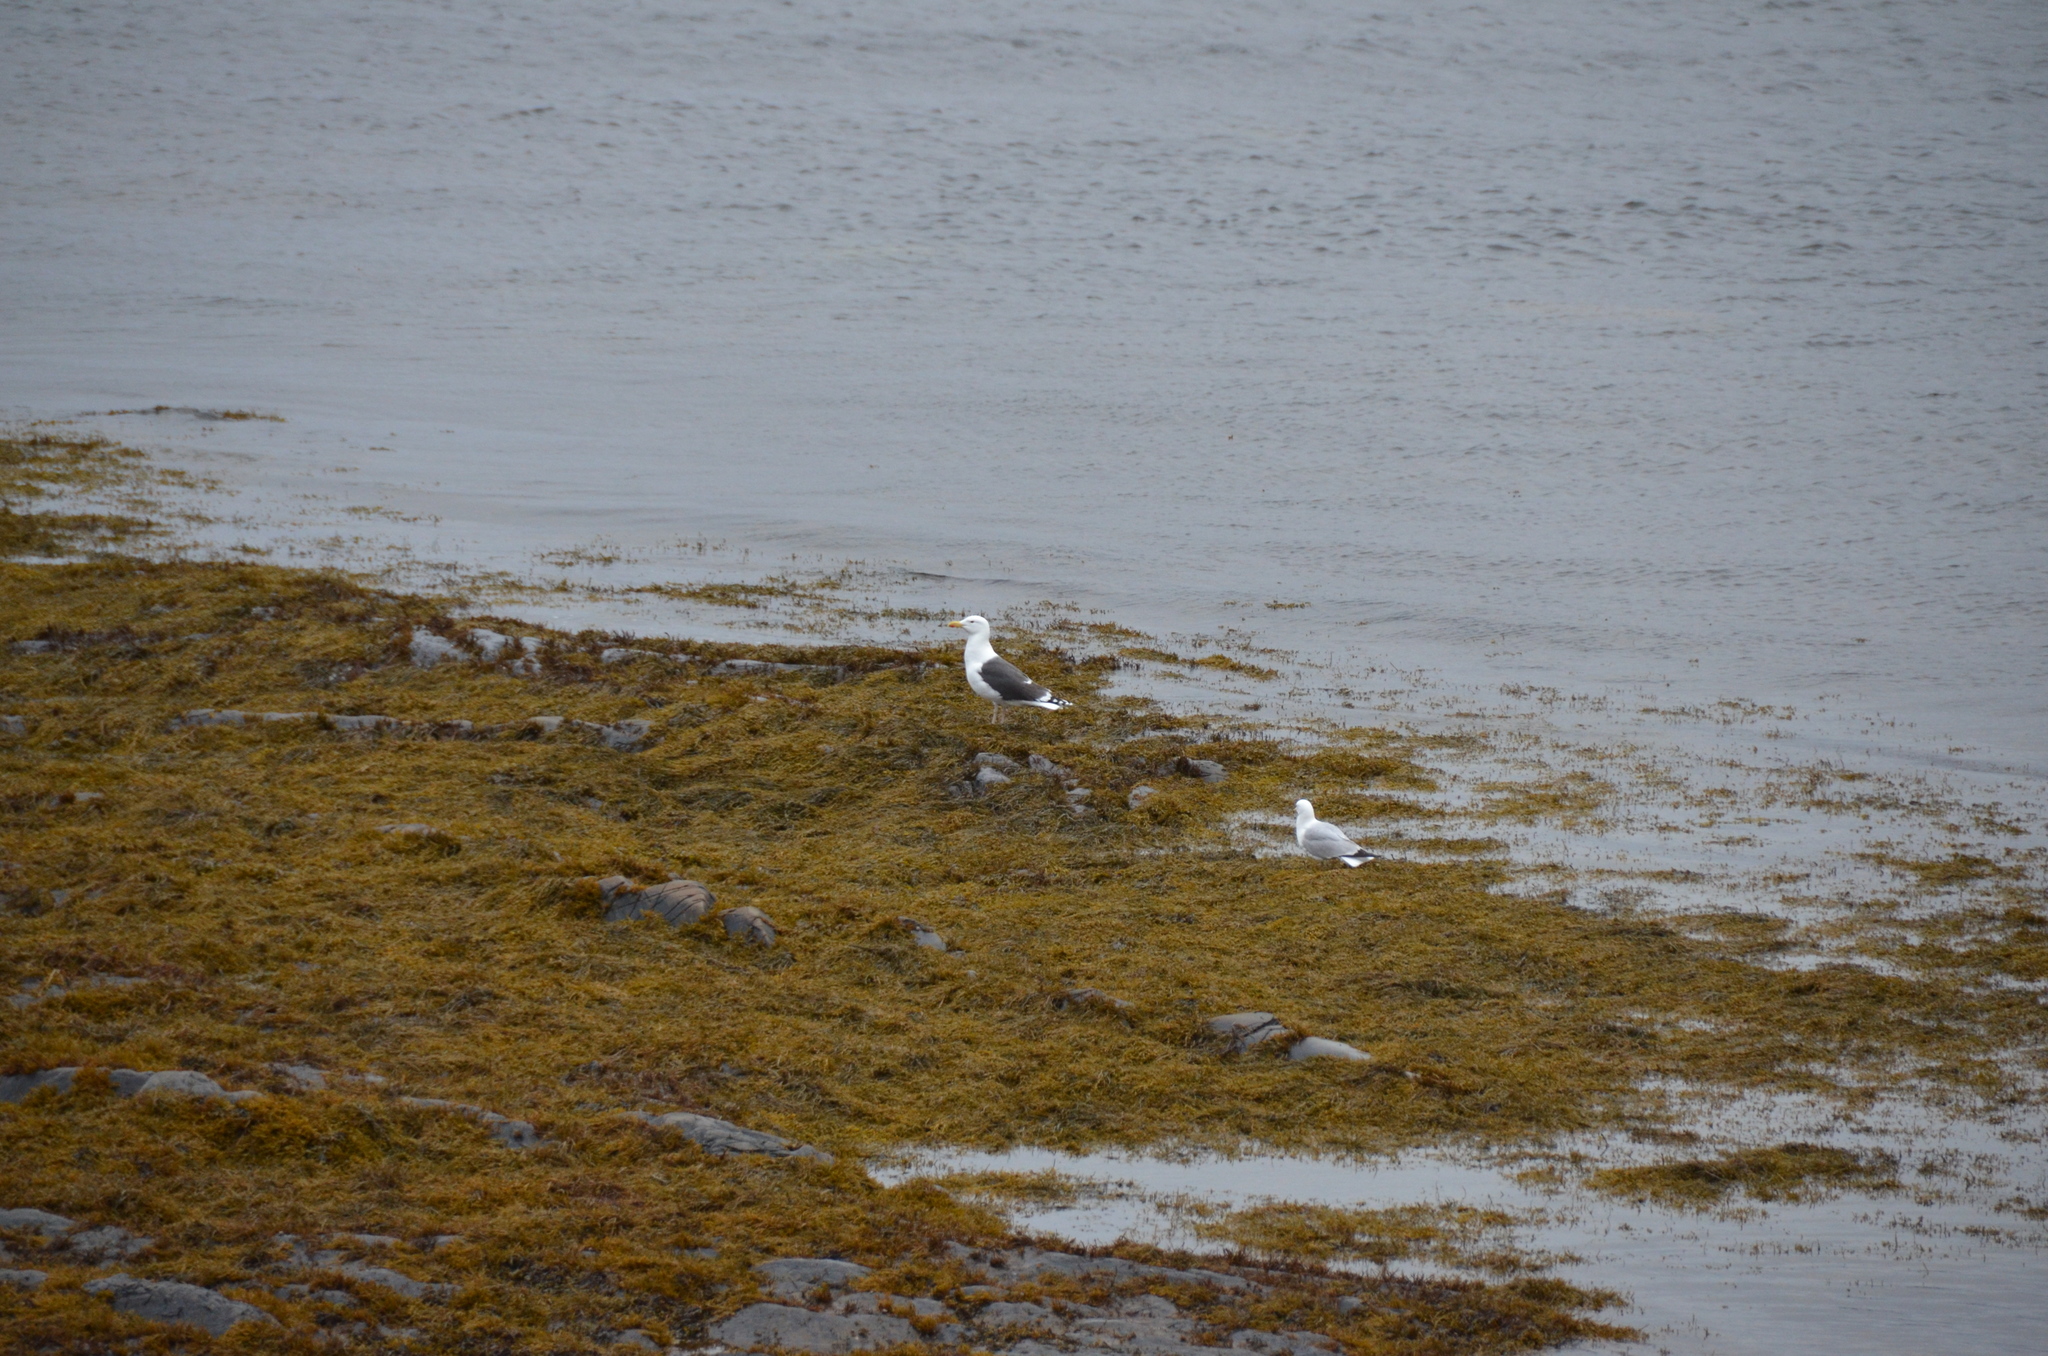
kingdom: Animalia
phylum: Chordata
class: Aves
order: Charadriiformes
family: Laridae
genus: Larus
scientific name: Larus marinus
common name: Great black-backed gull
